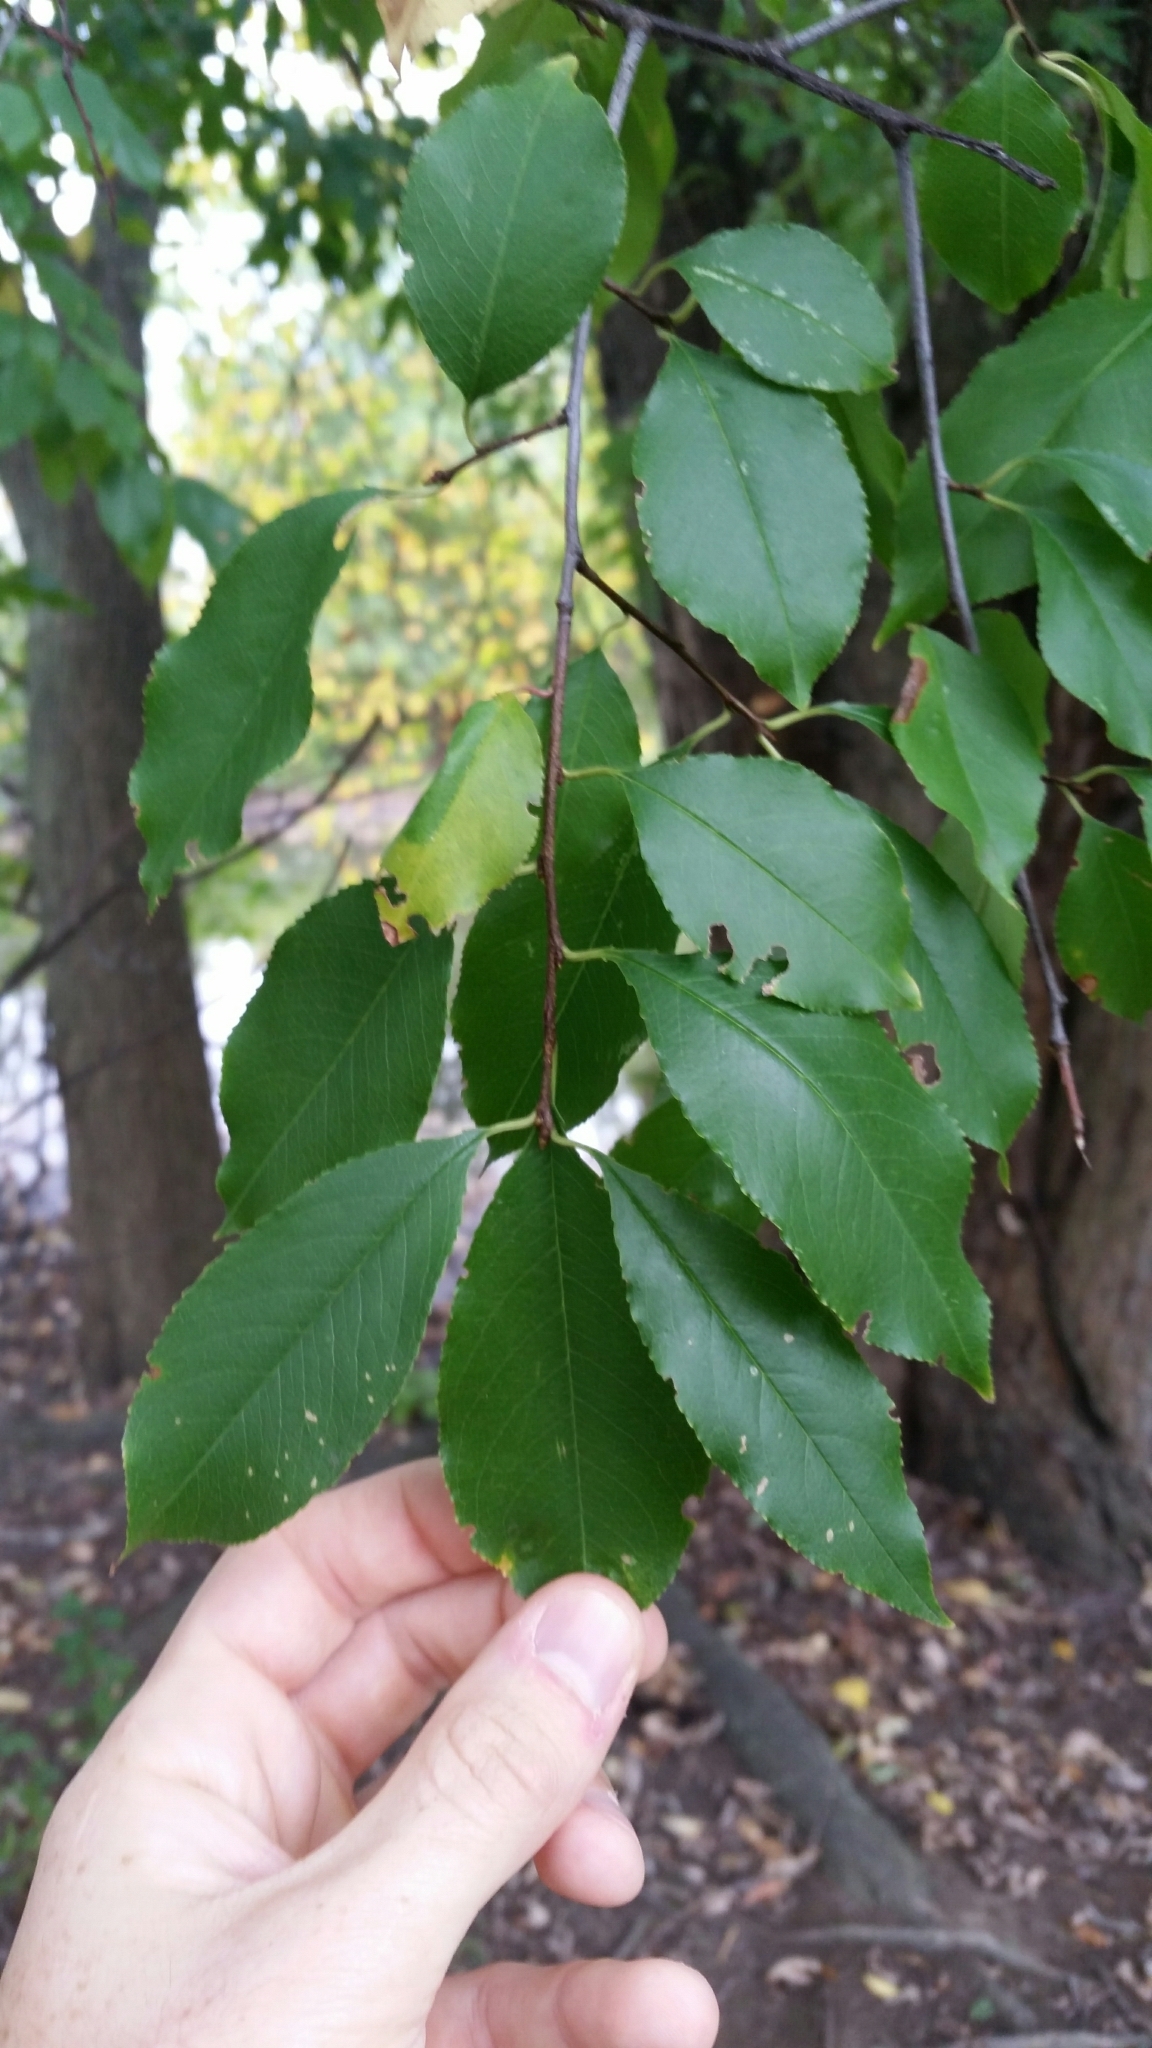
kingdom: Plantae
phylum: Tracheophyta
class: Magnoliopsida
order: Rosales
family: Rosaceae
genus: Prunus
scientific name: Prunus serotina
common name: Black cherry
